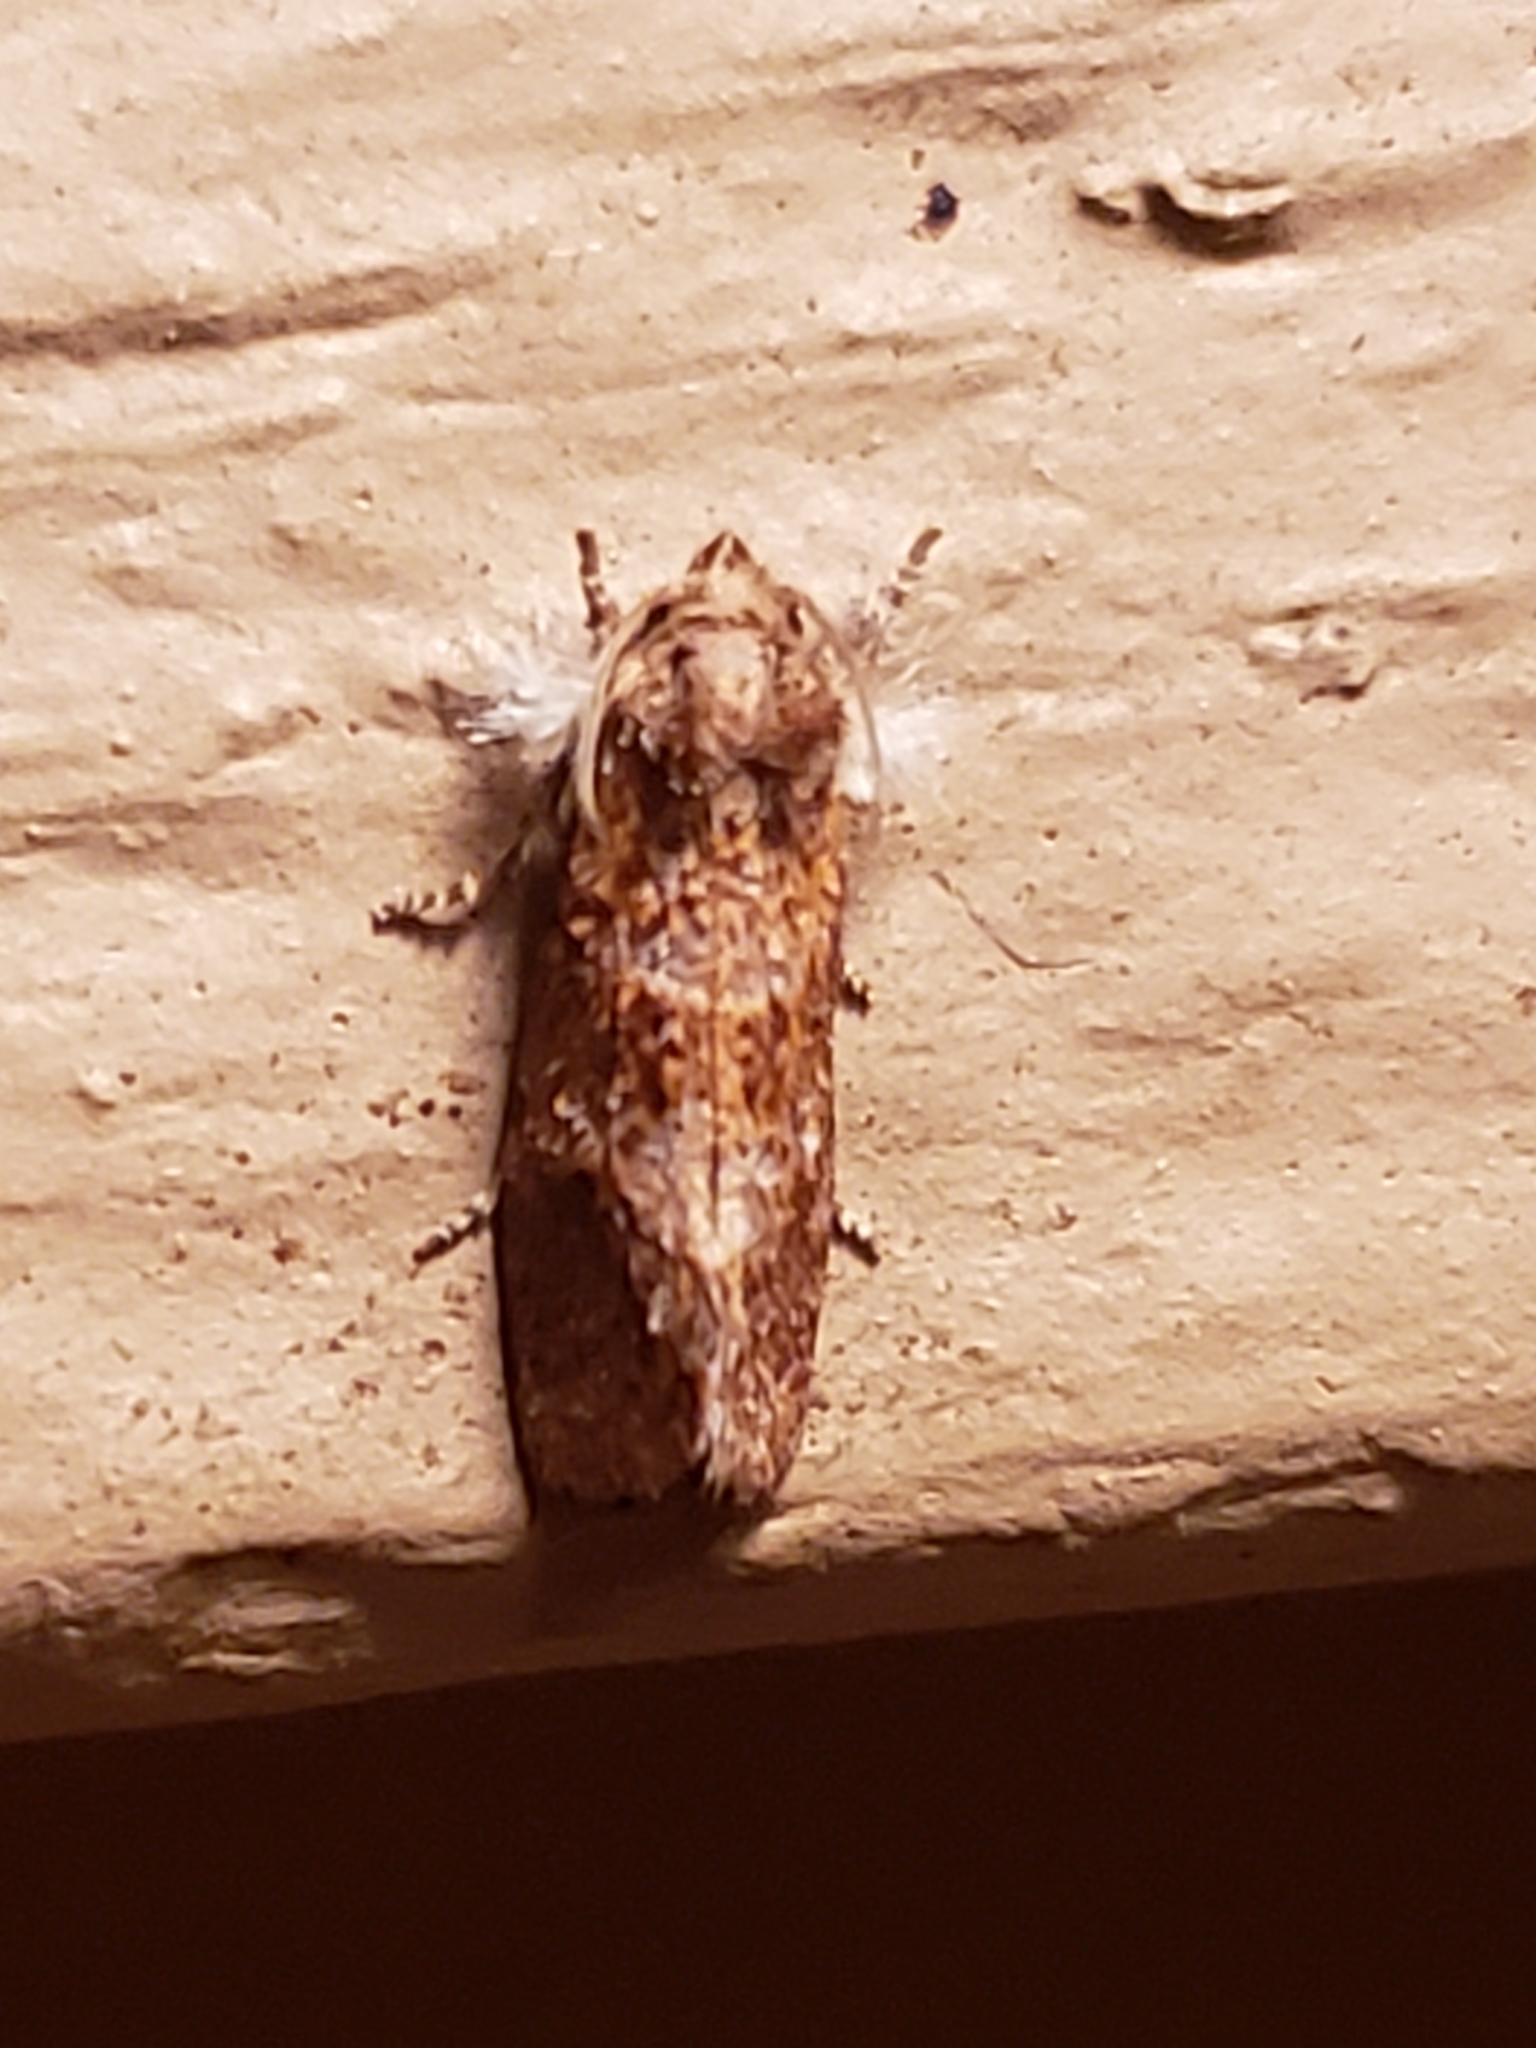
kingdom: Animalia
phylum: Arthropoda
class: Insecta
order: Lepidoptera
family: Tineidae
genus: Acrolophus
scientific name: Acrolophus panamae
